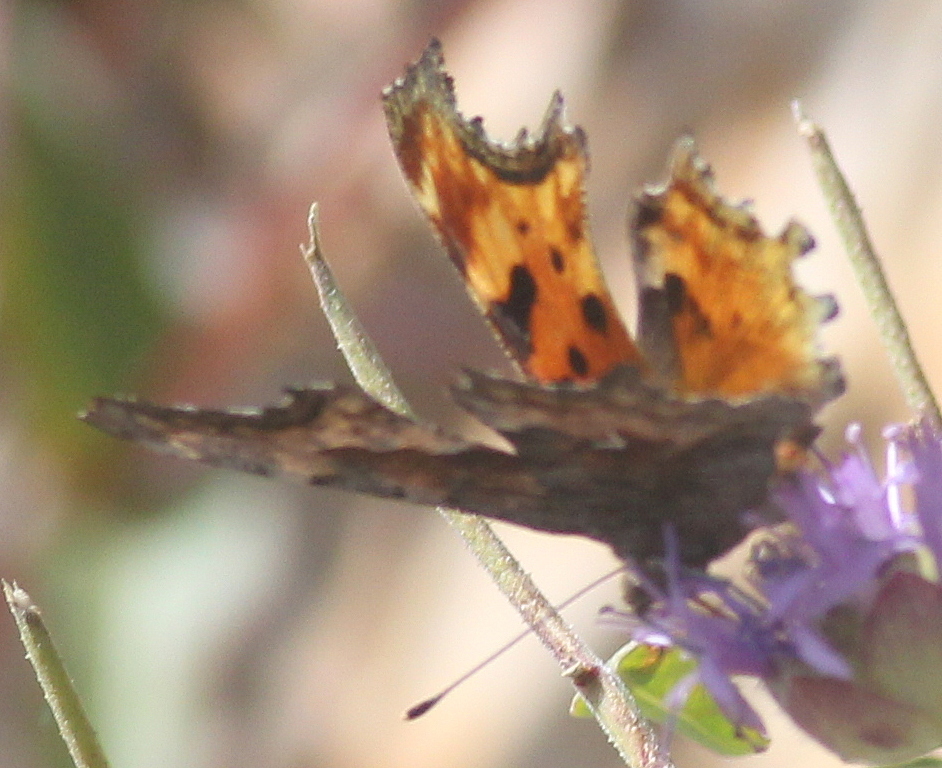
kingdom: Animalia
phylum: Arthropoda
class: Insecta
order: Lepidoptera
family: Nymphalidae
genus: Polygonia
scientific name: Polygonia gracilis
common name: Hoary comma
